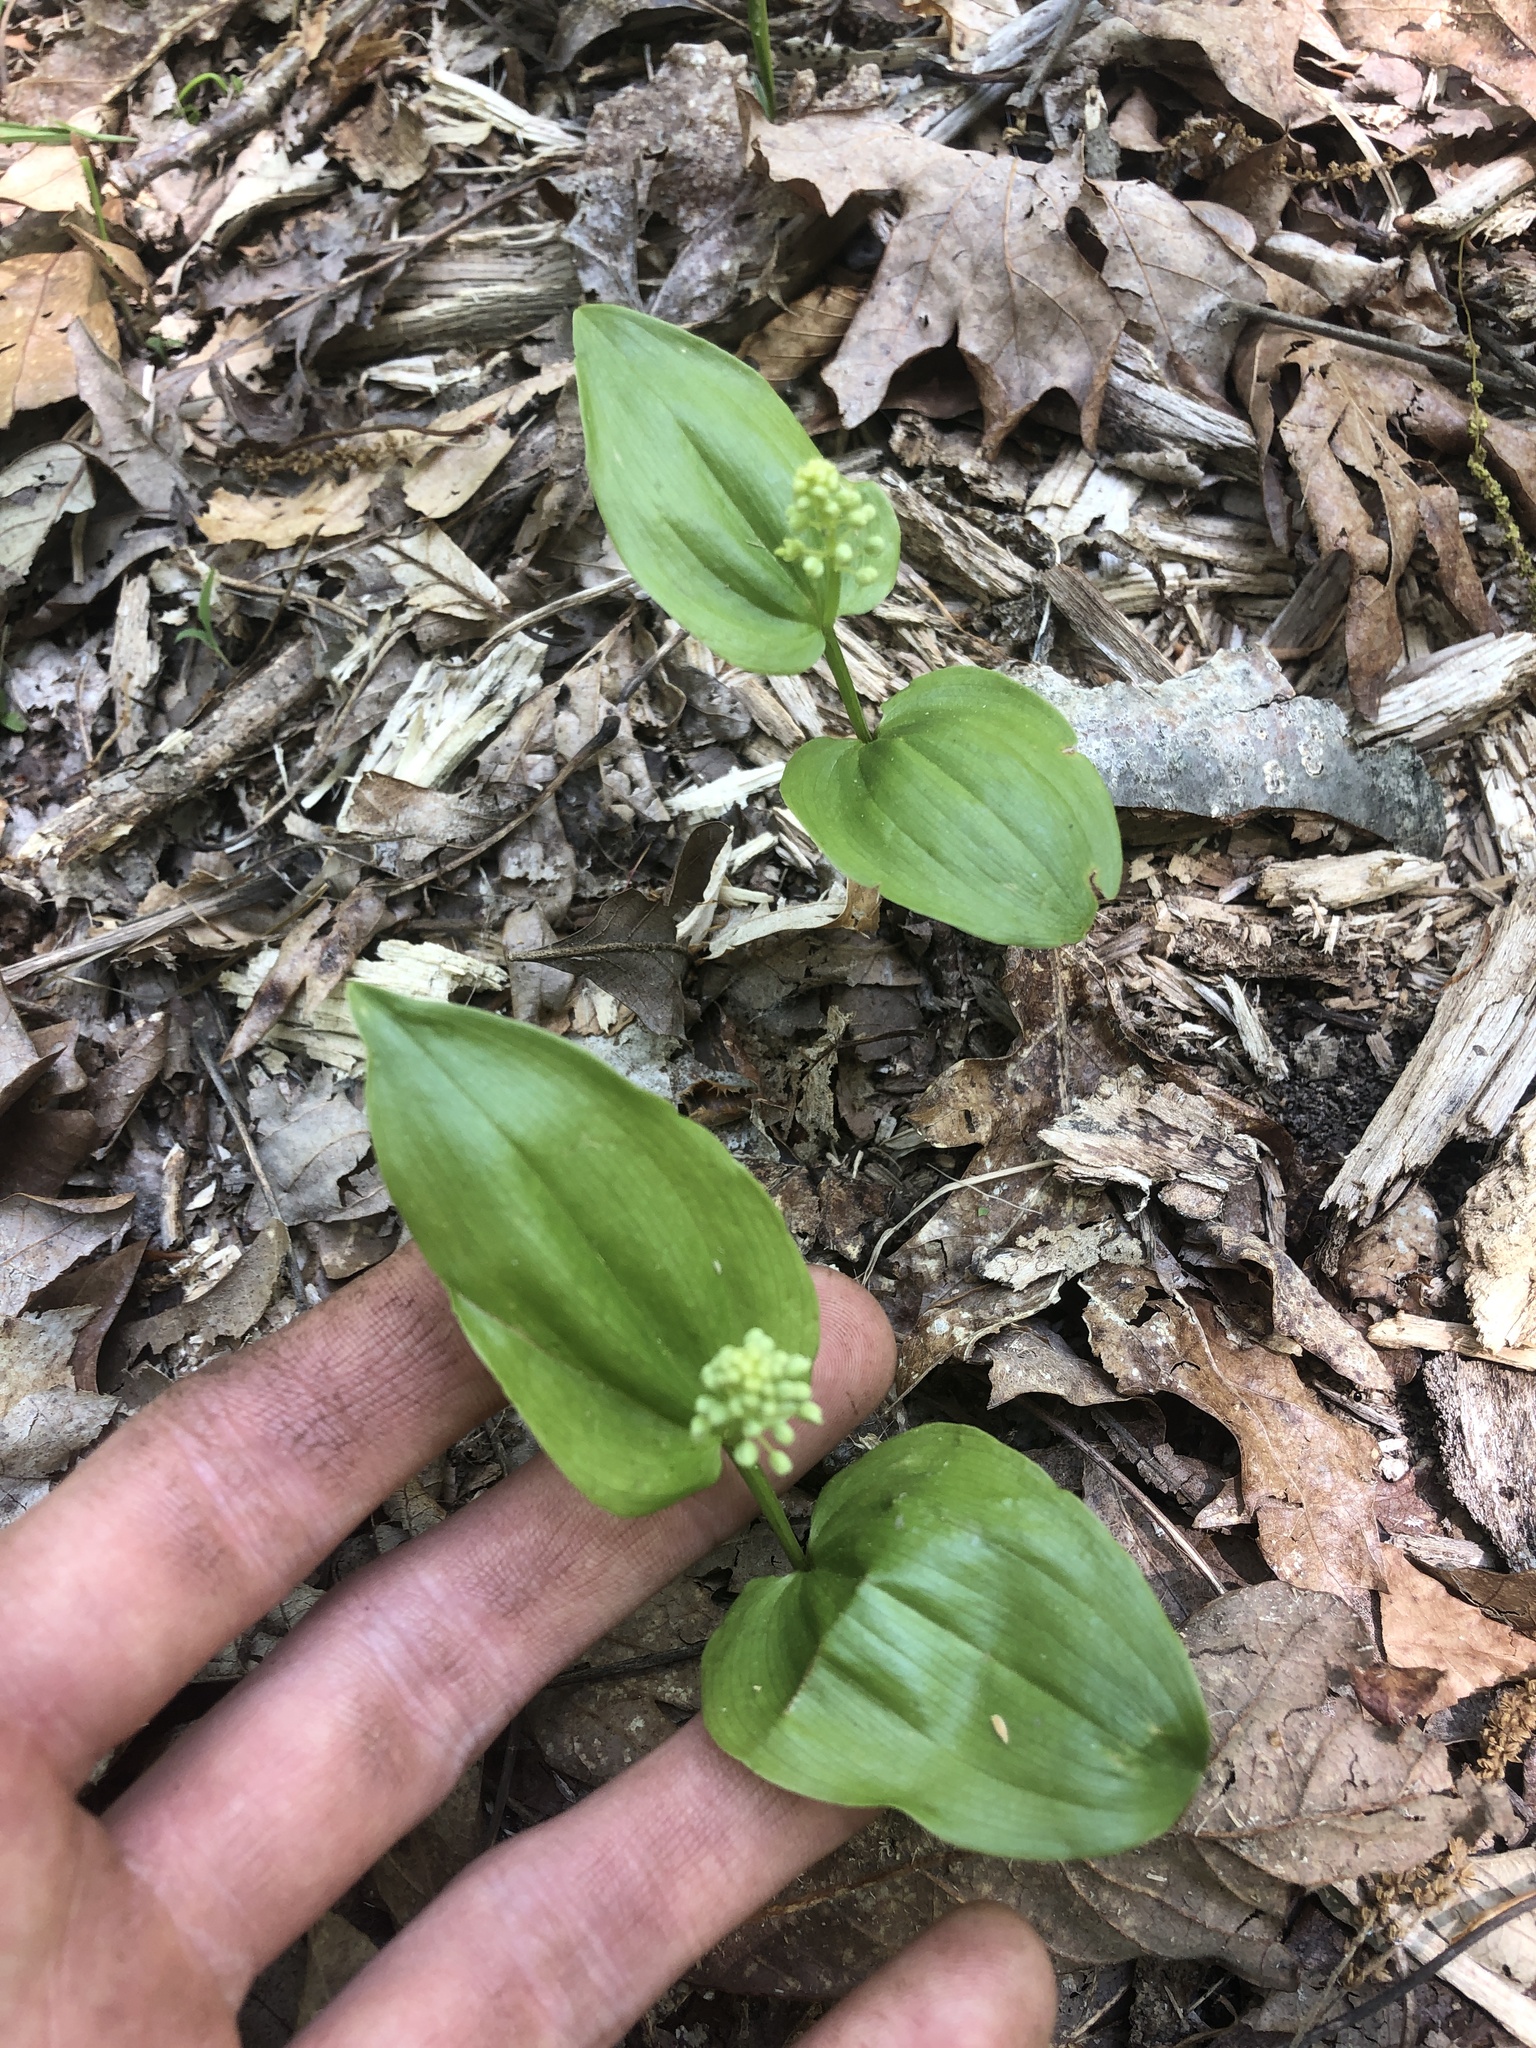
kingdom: Plantae
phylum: Tracheophyta
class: Liliopsida
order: Asparagales
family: Asparagaceae
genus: Maianthemum
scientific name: Maianthemum canadense
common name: False lily-of-the-valley
